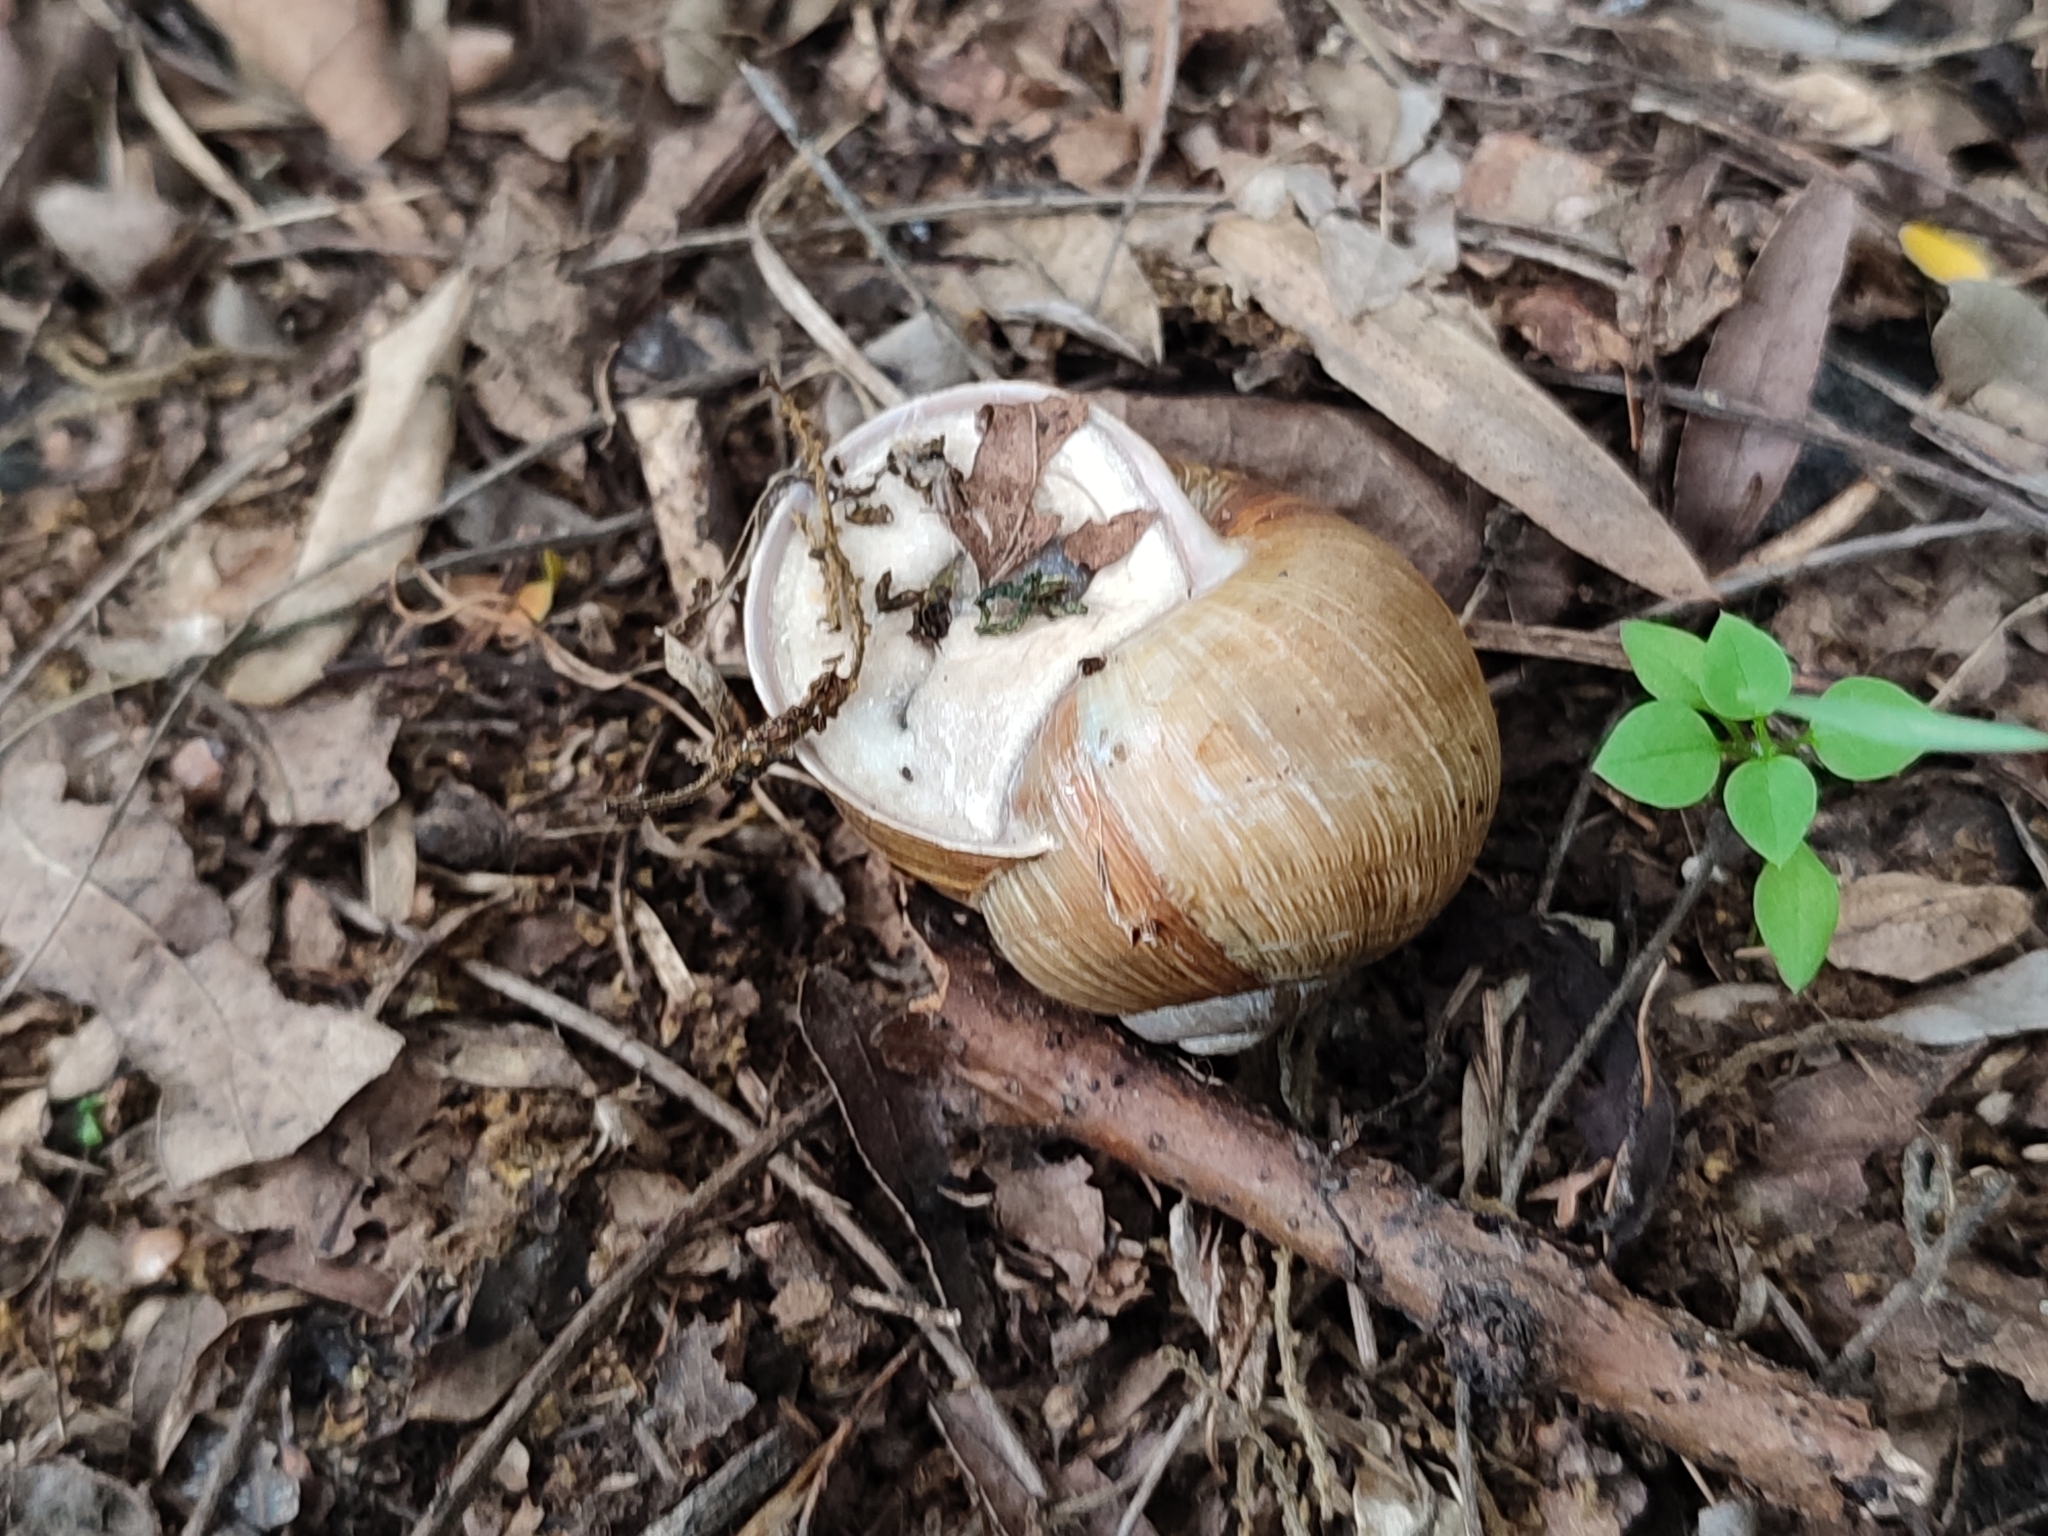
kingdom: Animalia
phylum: Mollusca
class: Gastropoda
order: Stylommatophora
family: Helicidae
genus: Helix
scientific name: Helix pomatia
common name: Roman snail
